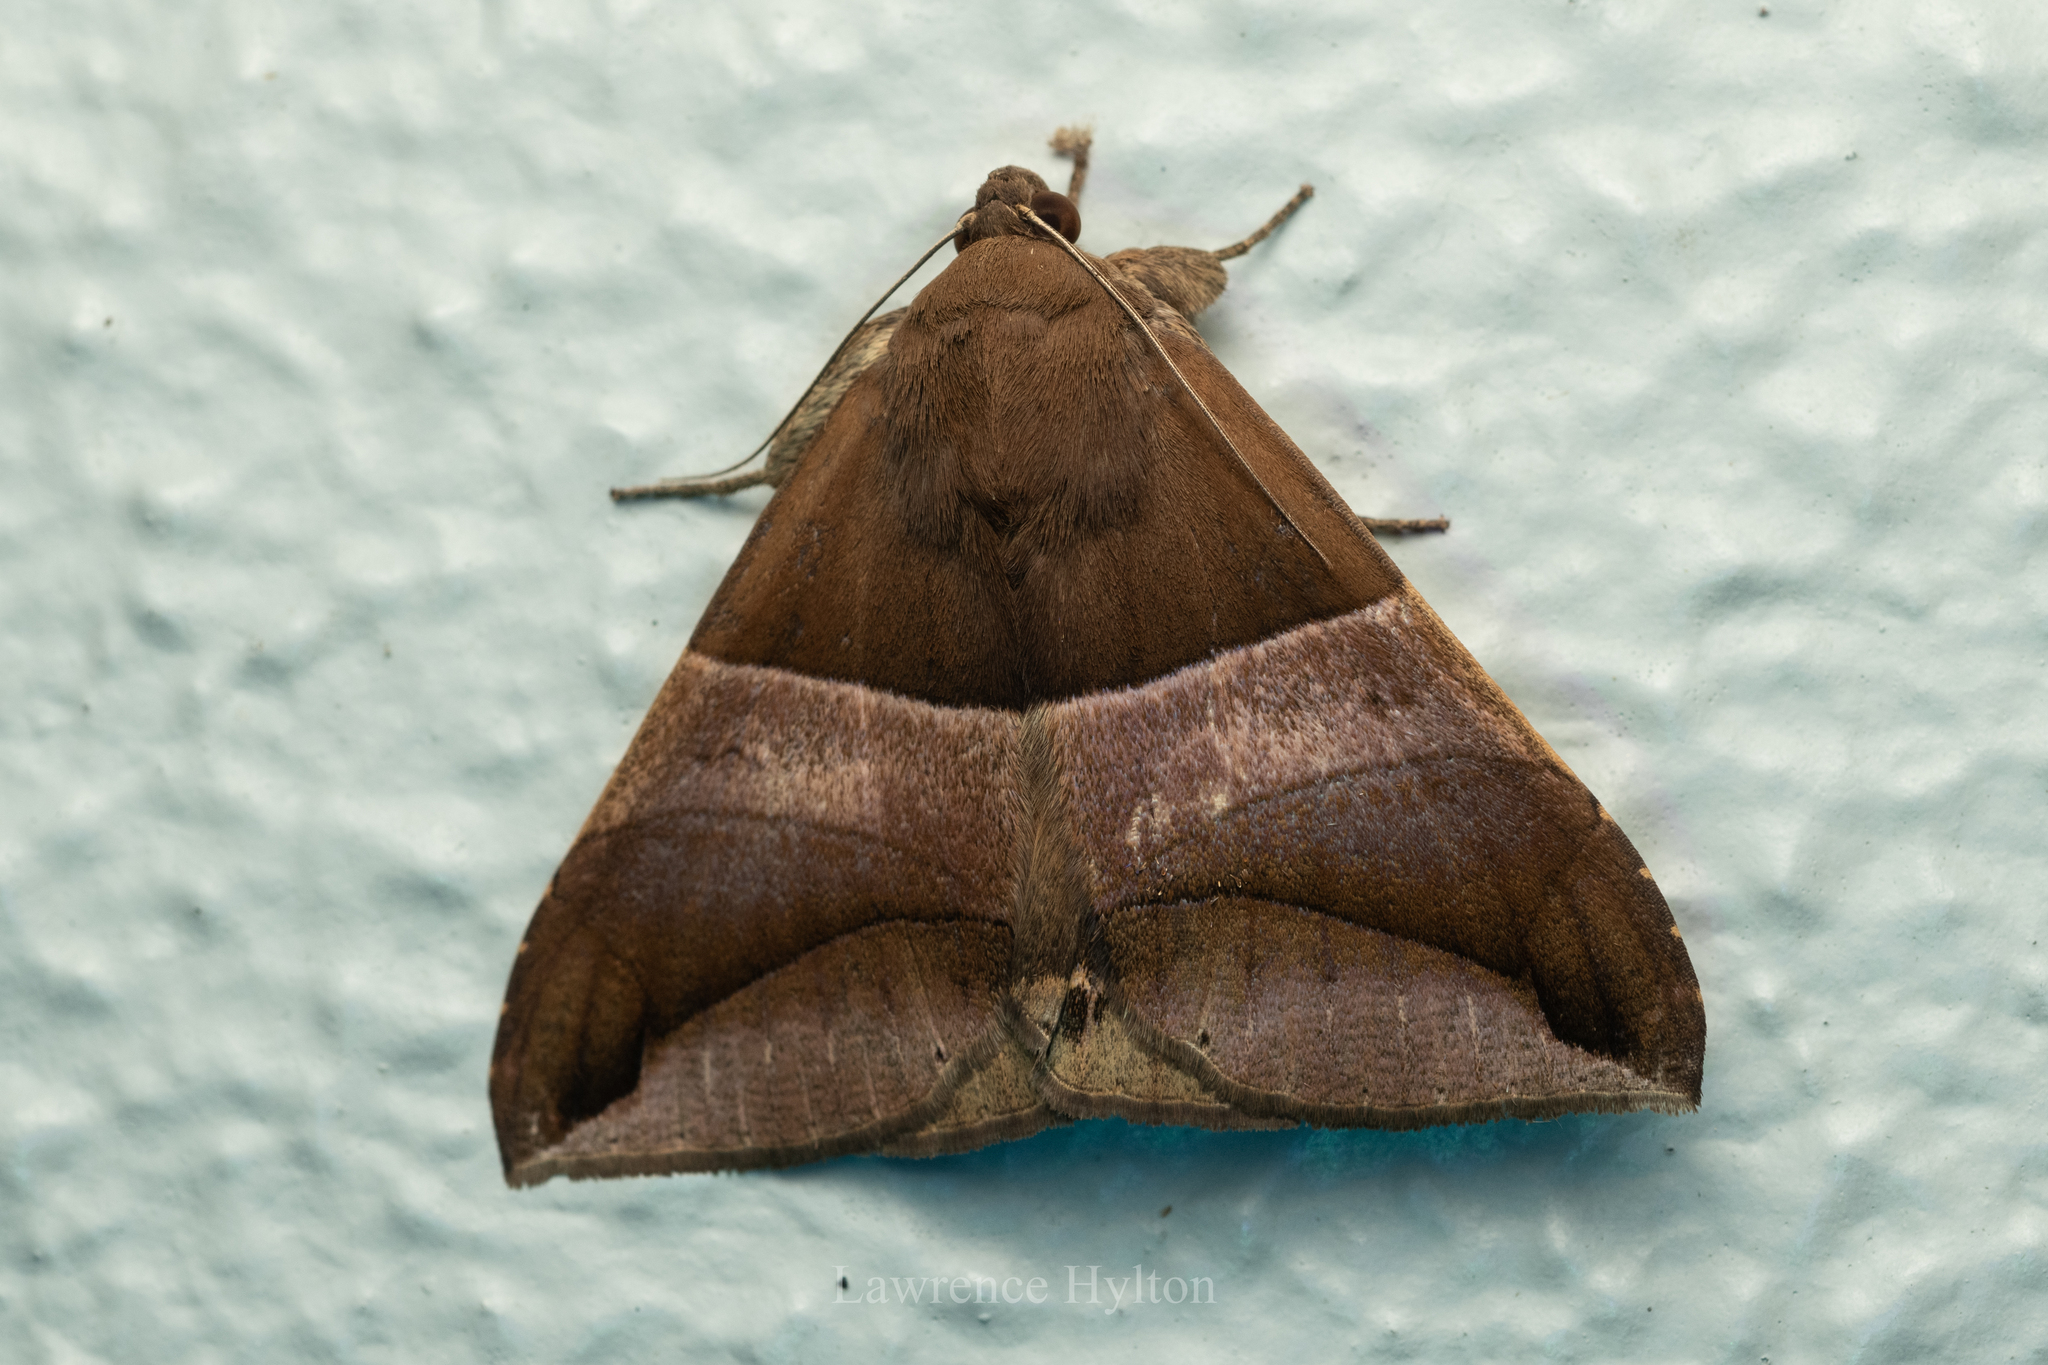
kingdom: Animalia
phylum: Arthropoda
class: Insecta
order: Lepidoptera
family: Erebidae
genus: Bastilla
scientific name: Bastilla fulvotaenia
